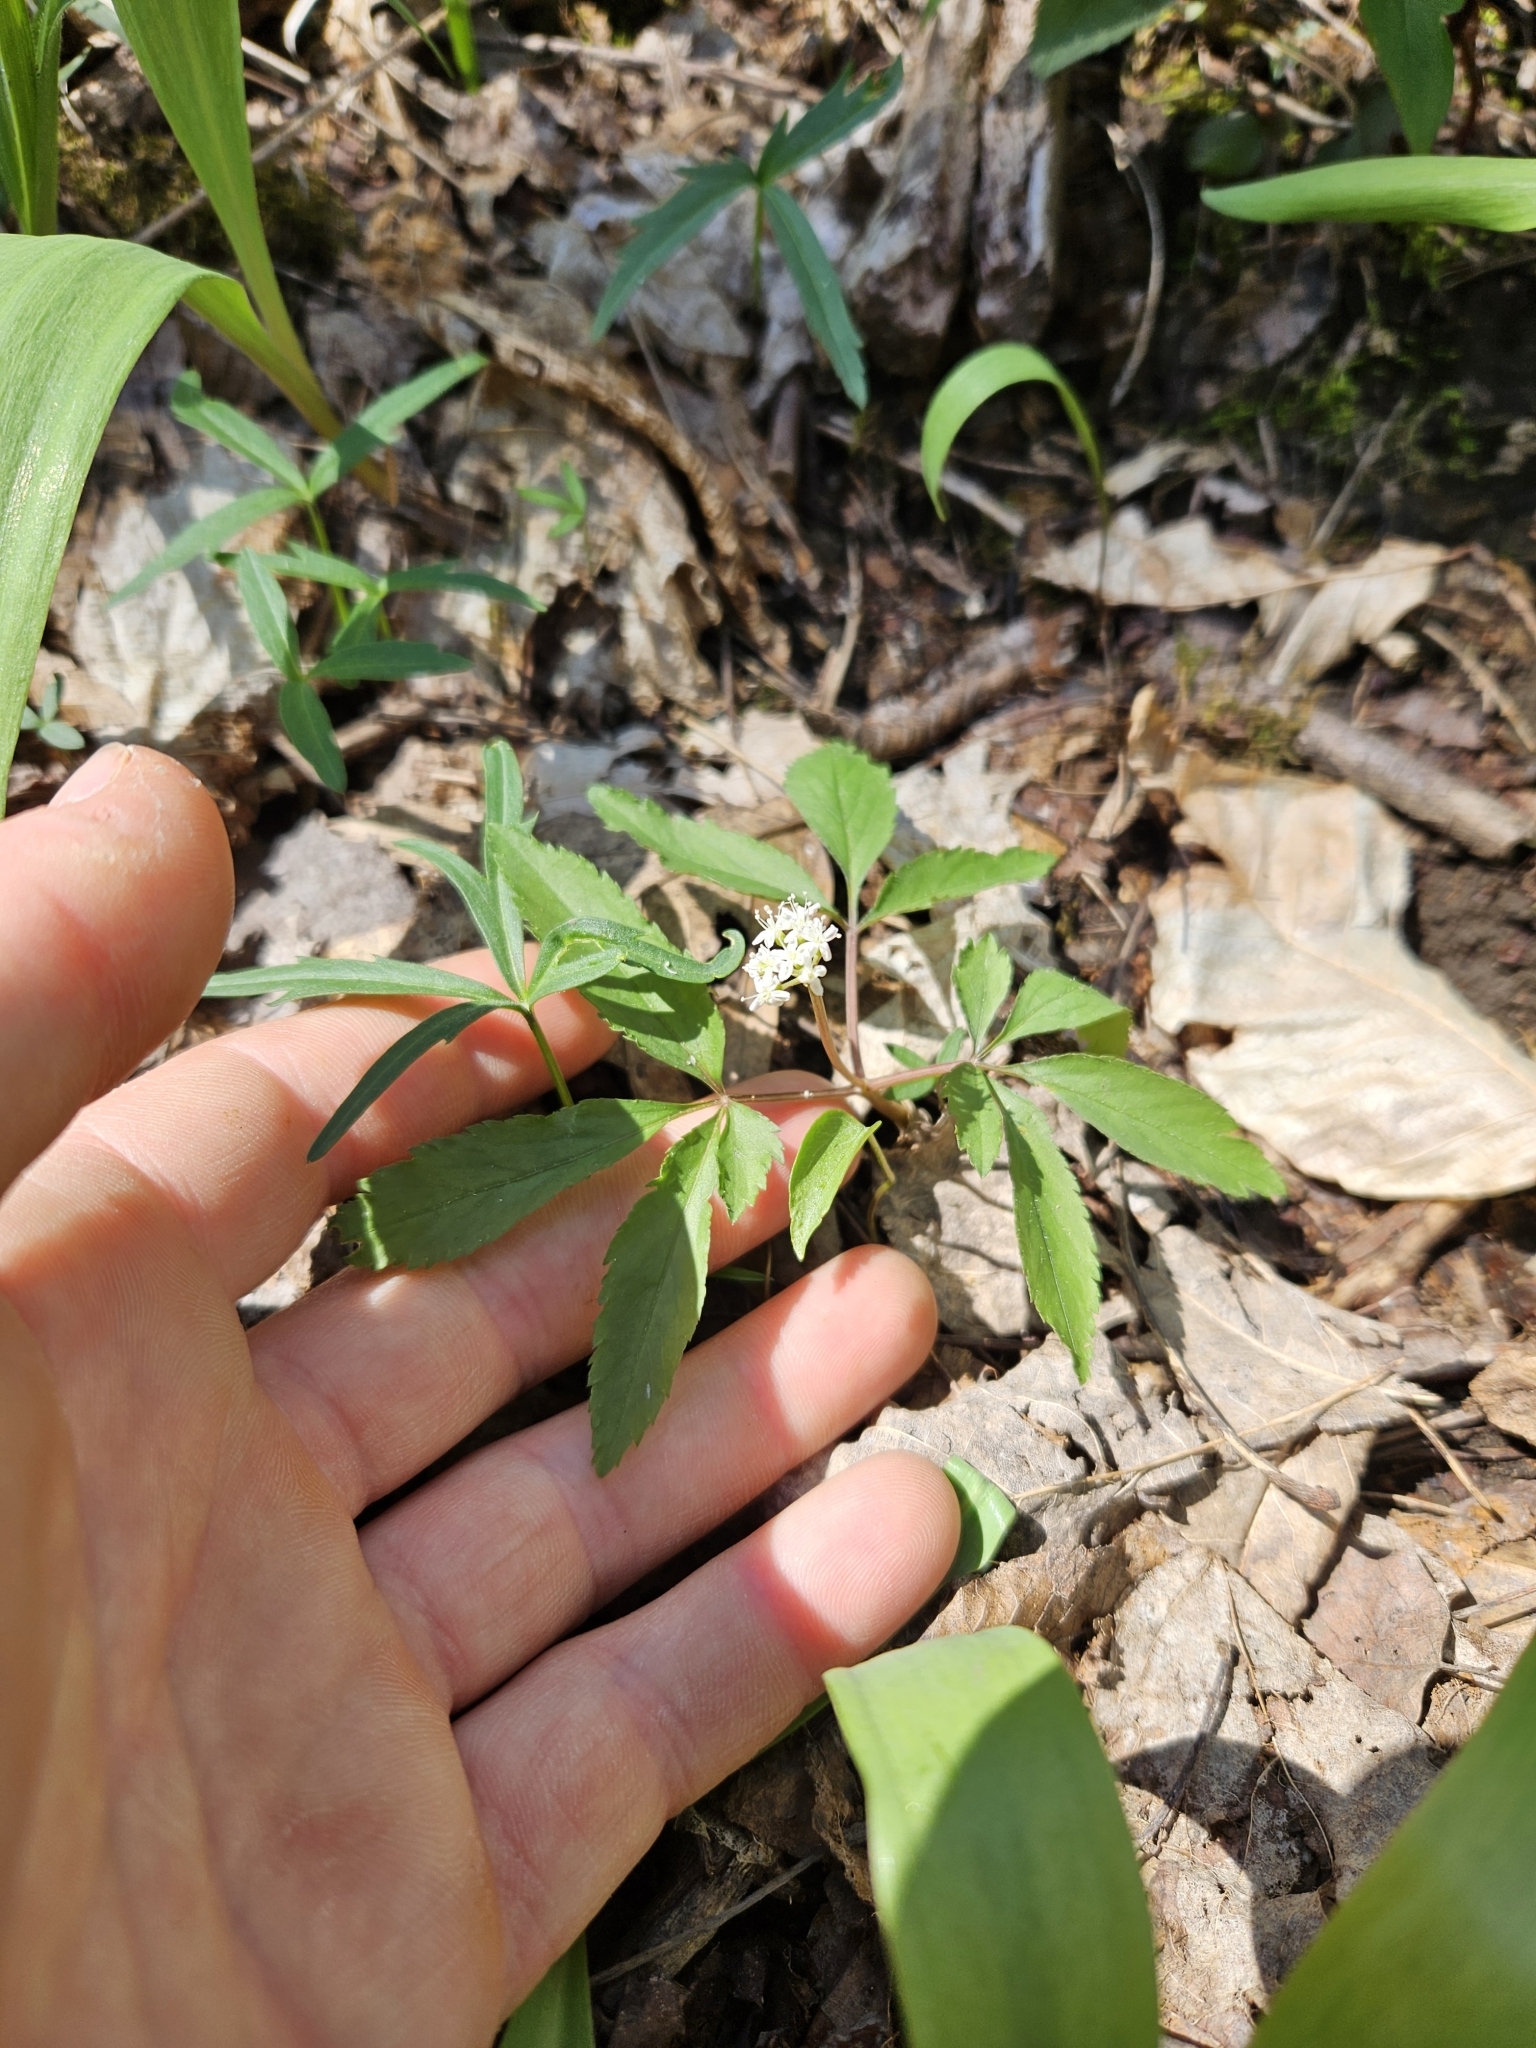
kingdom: Plantae
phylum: Tracheophyta
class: Magnoliopsida
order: Apiales
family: Araliaceae
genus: Panax
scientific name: Panax trifolius
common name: Dwarf ginseng
